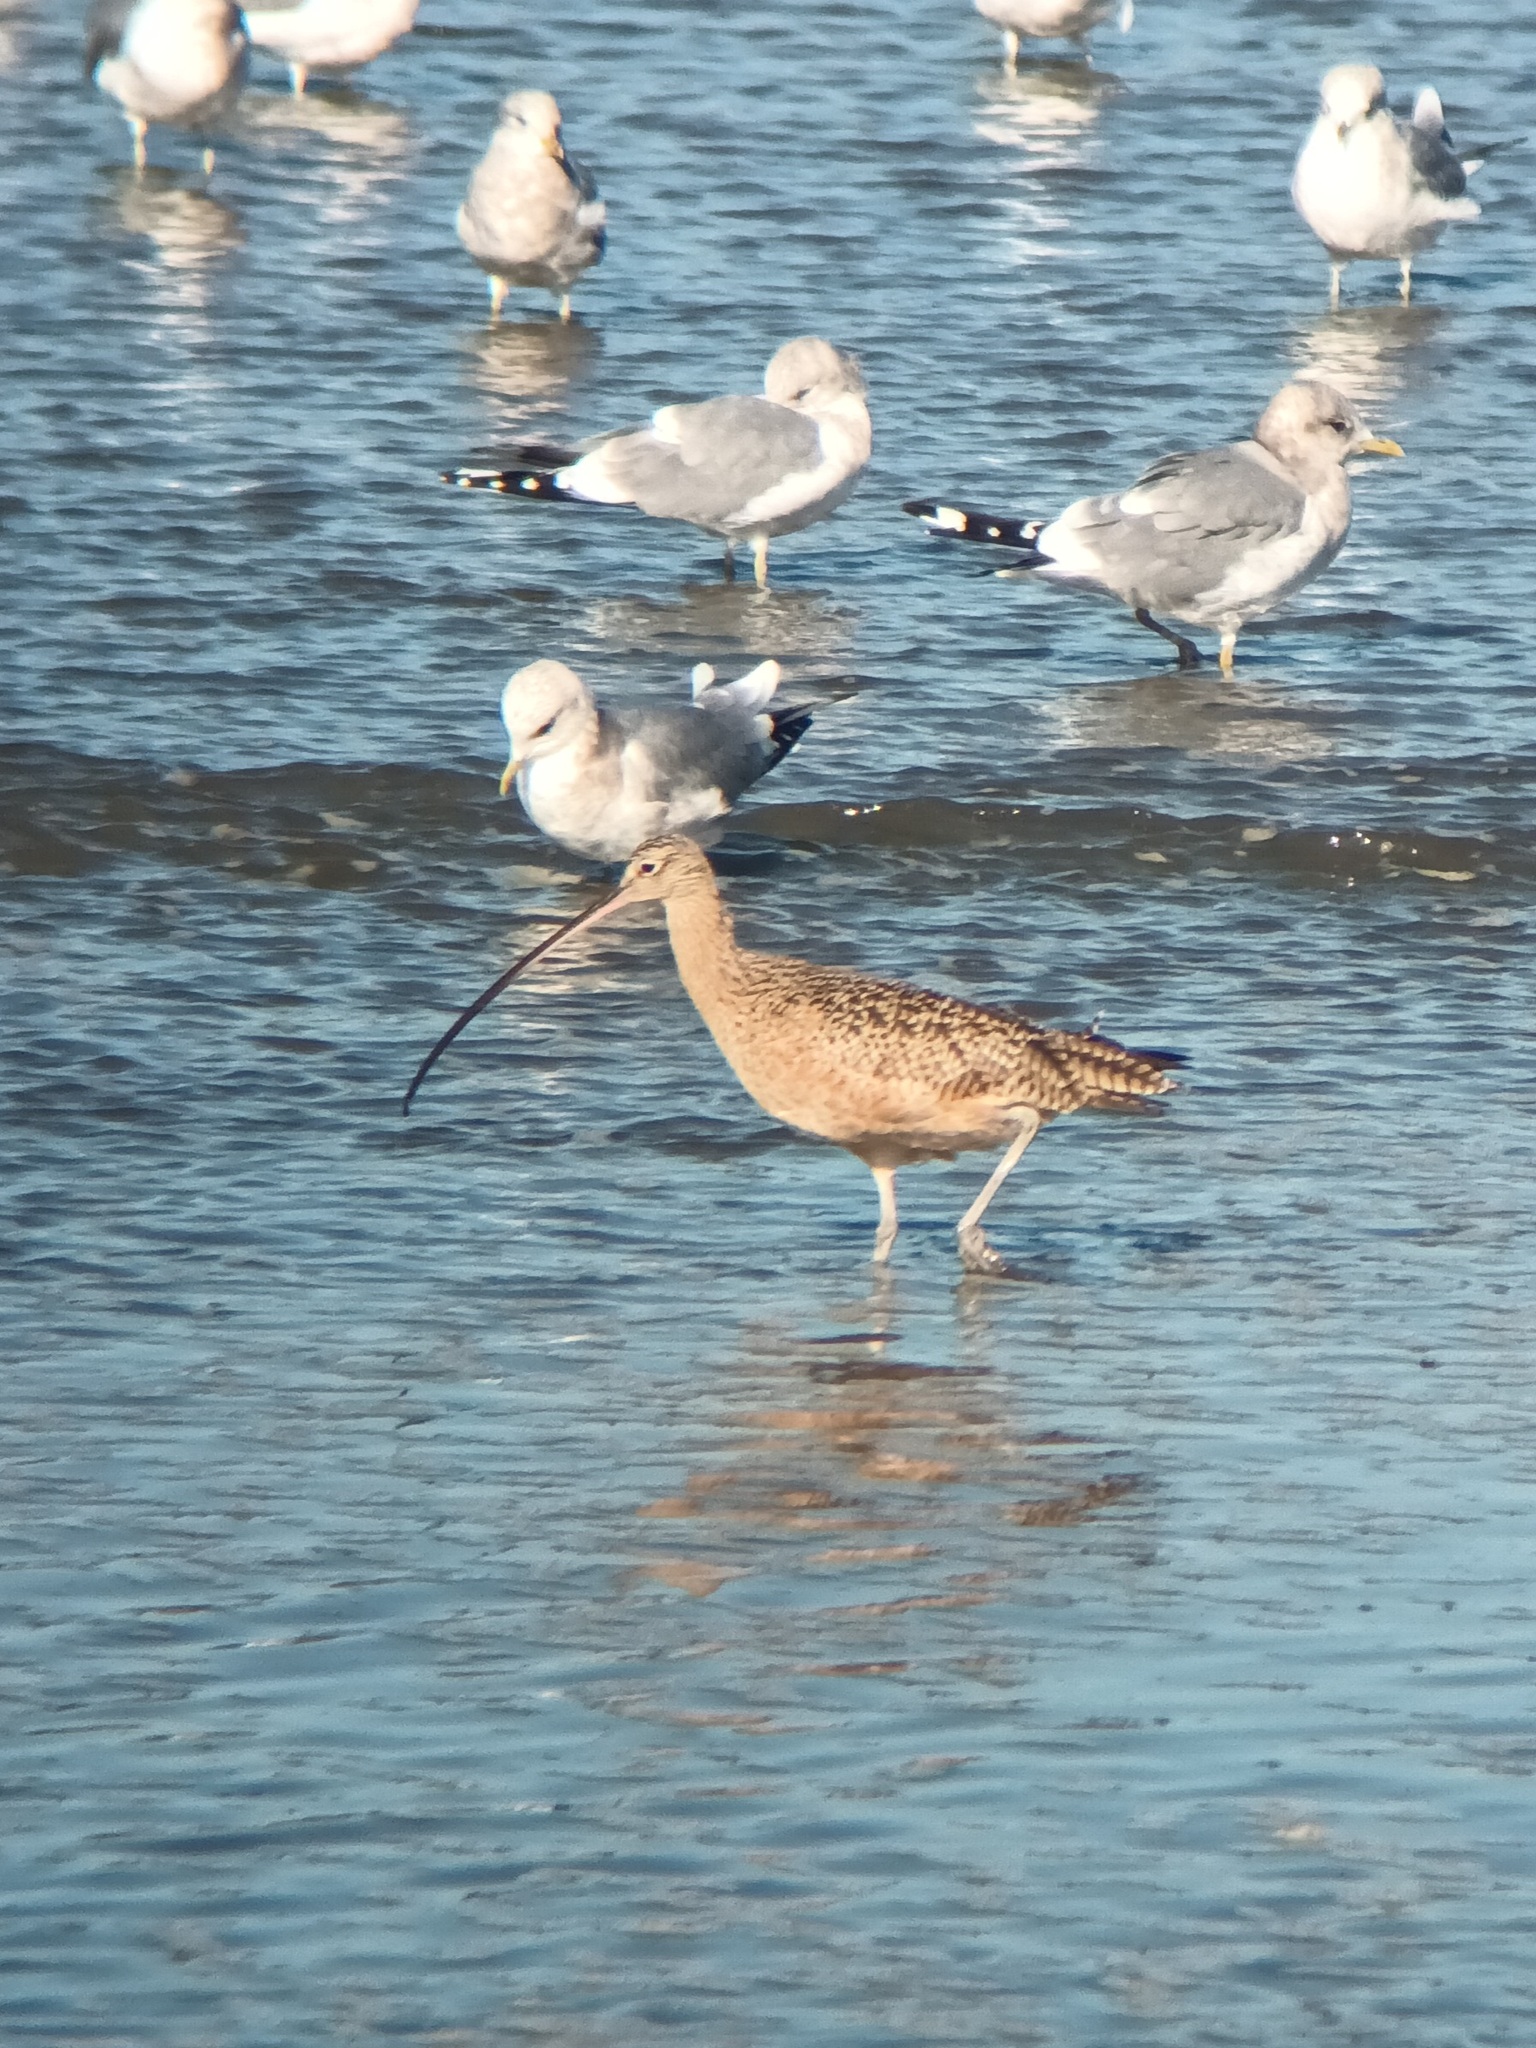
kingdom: Animalia
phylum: Chordata
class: Aves
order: Charadriiformes
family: Scolopacidae
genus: Numenius
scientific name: Numenius americanus
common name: Long-billed curlew
